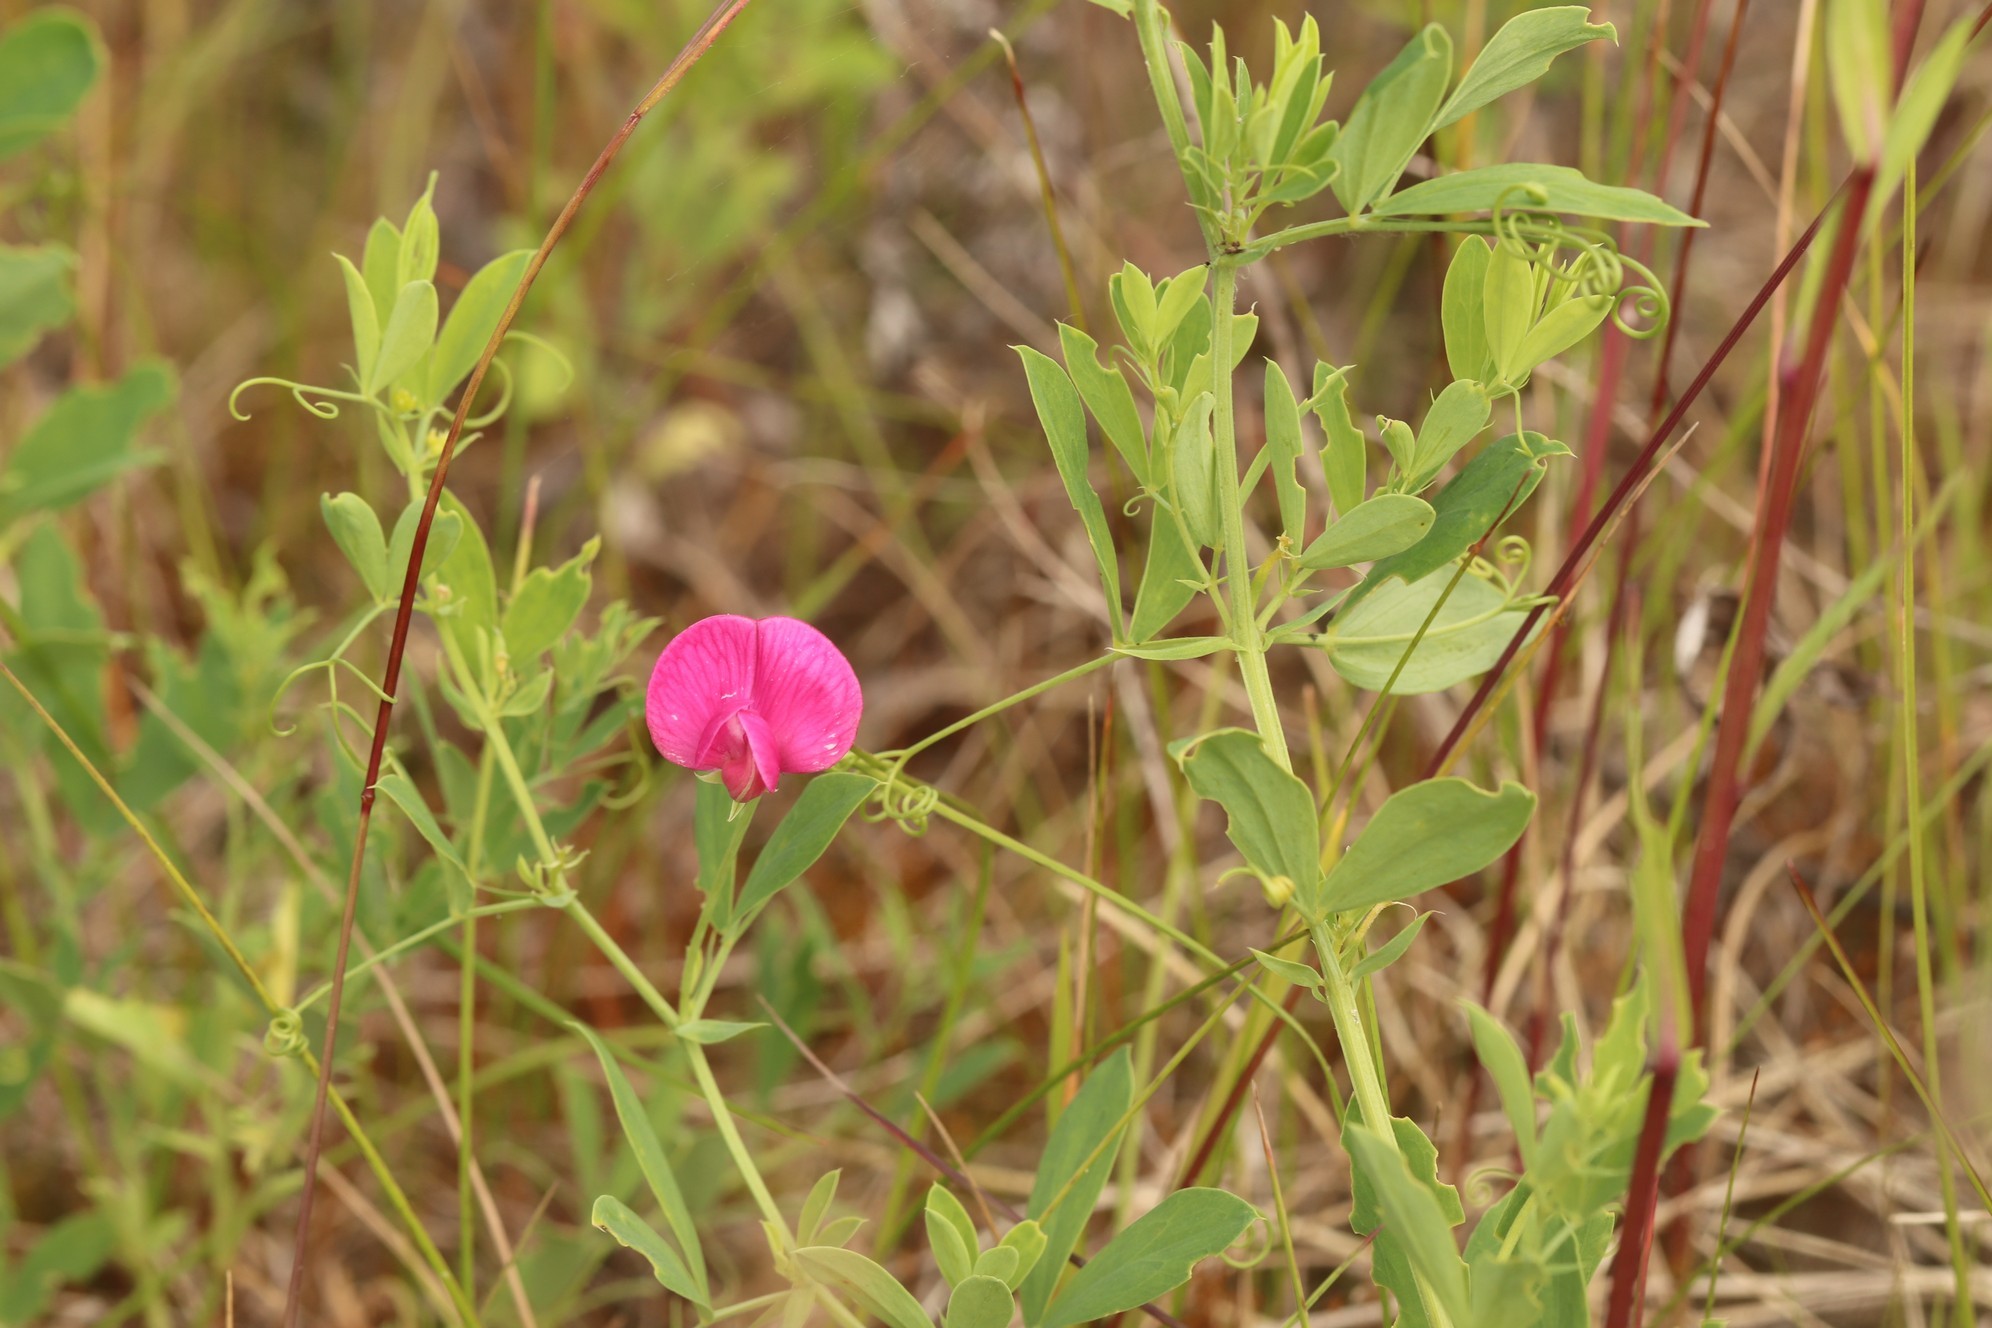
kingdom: Plantae
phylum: Tracheophyta
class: Magnoliopsida
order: Fabales
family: Fabaceae
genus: Lathyrus
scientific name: Lathyrus tuberosus
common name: Tuberous pea
